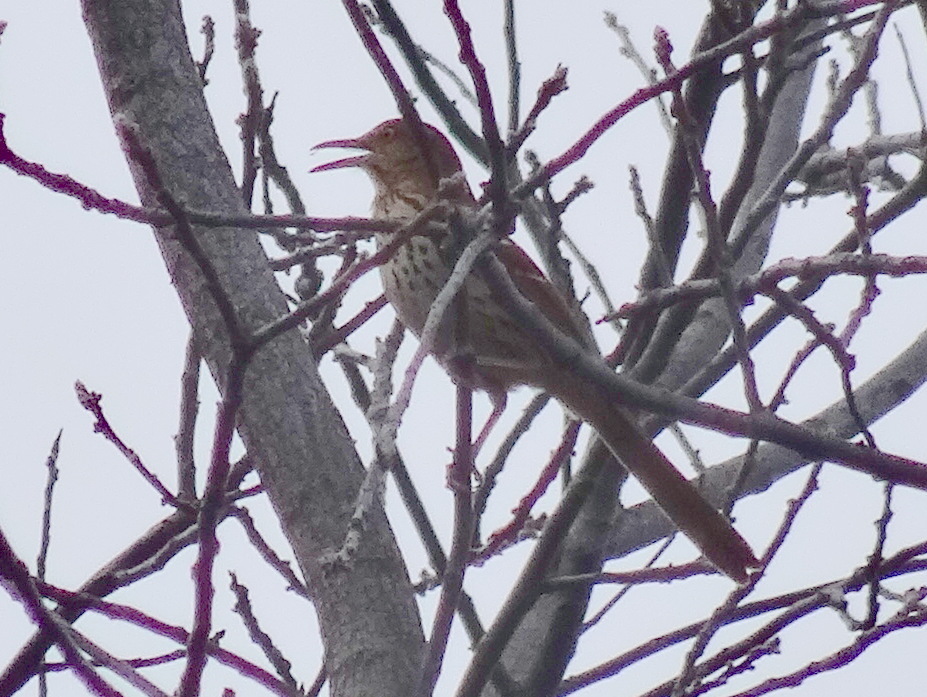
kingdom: Animalia
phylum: Chordata
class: Aves
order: Passeriformes
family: Mimidae
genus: Toxostoma
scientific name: Toxostoma rufum
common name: Brown thrasher
